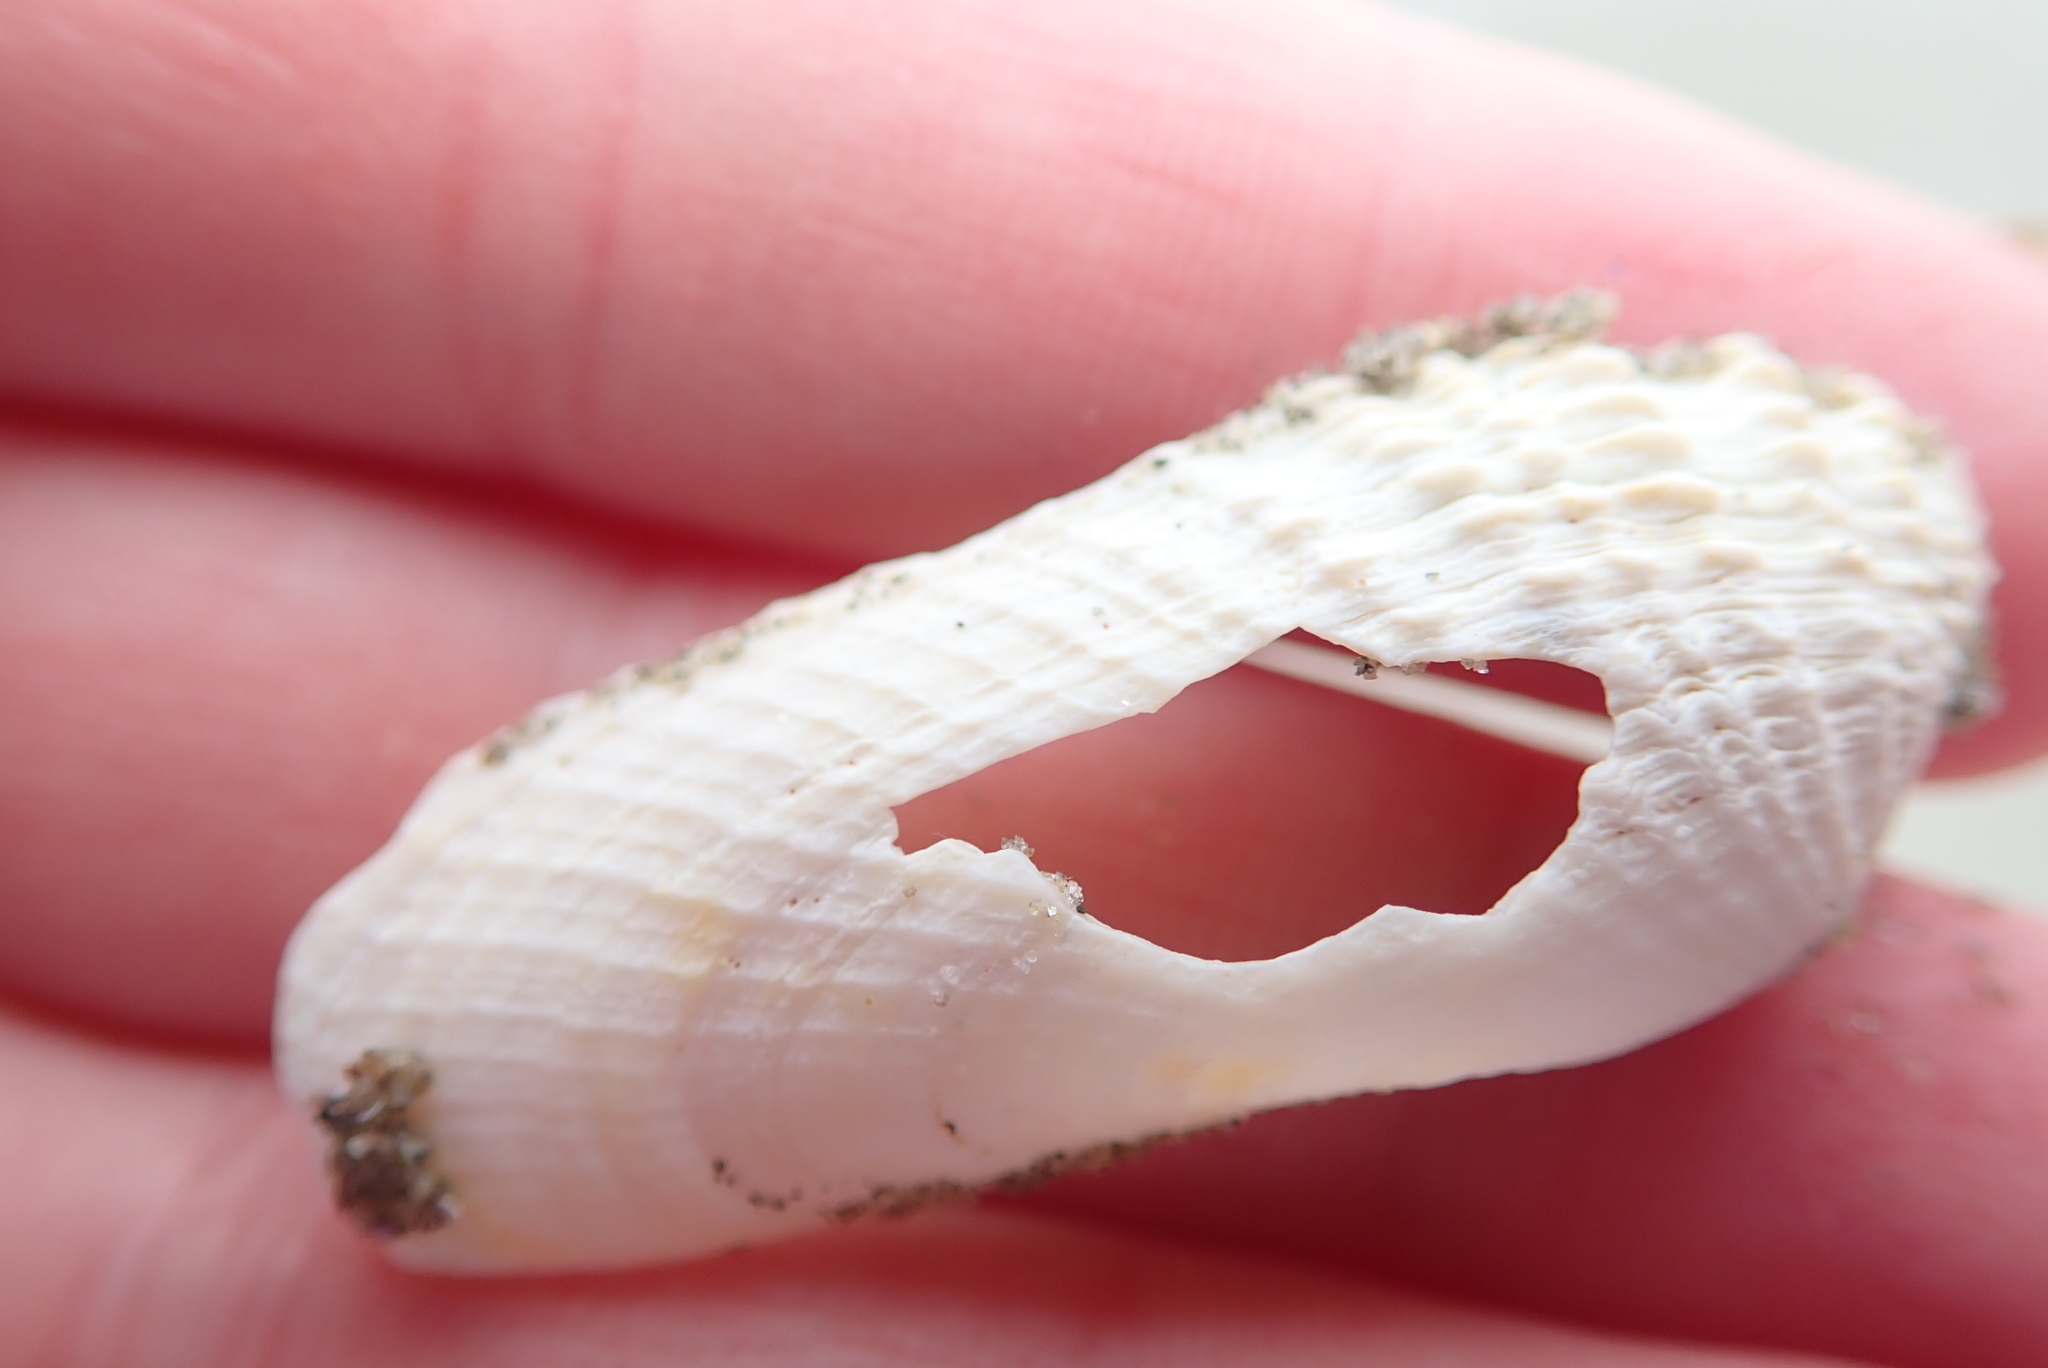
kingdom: Animalia
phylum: Mollusca
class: Bivalvia
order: Venerida
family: Veneridae
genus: Petricolaria
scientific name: Petricolaria pholadiformis
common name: American piddock
